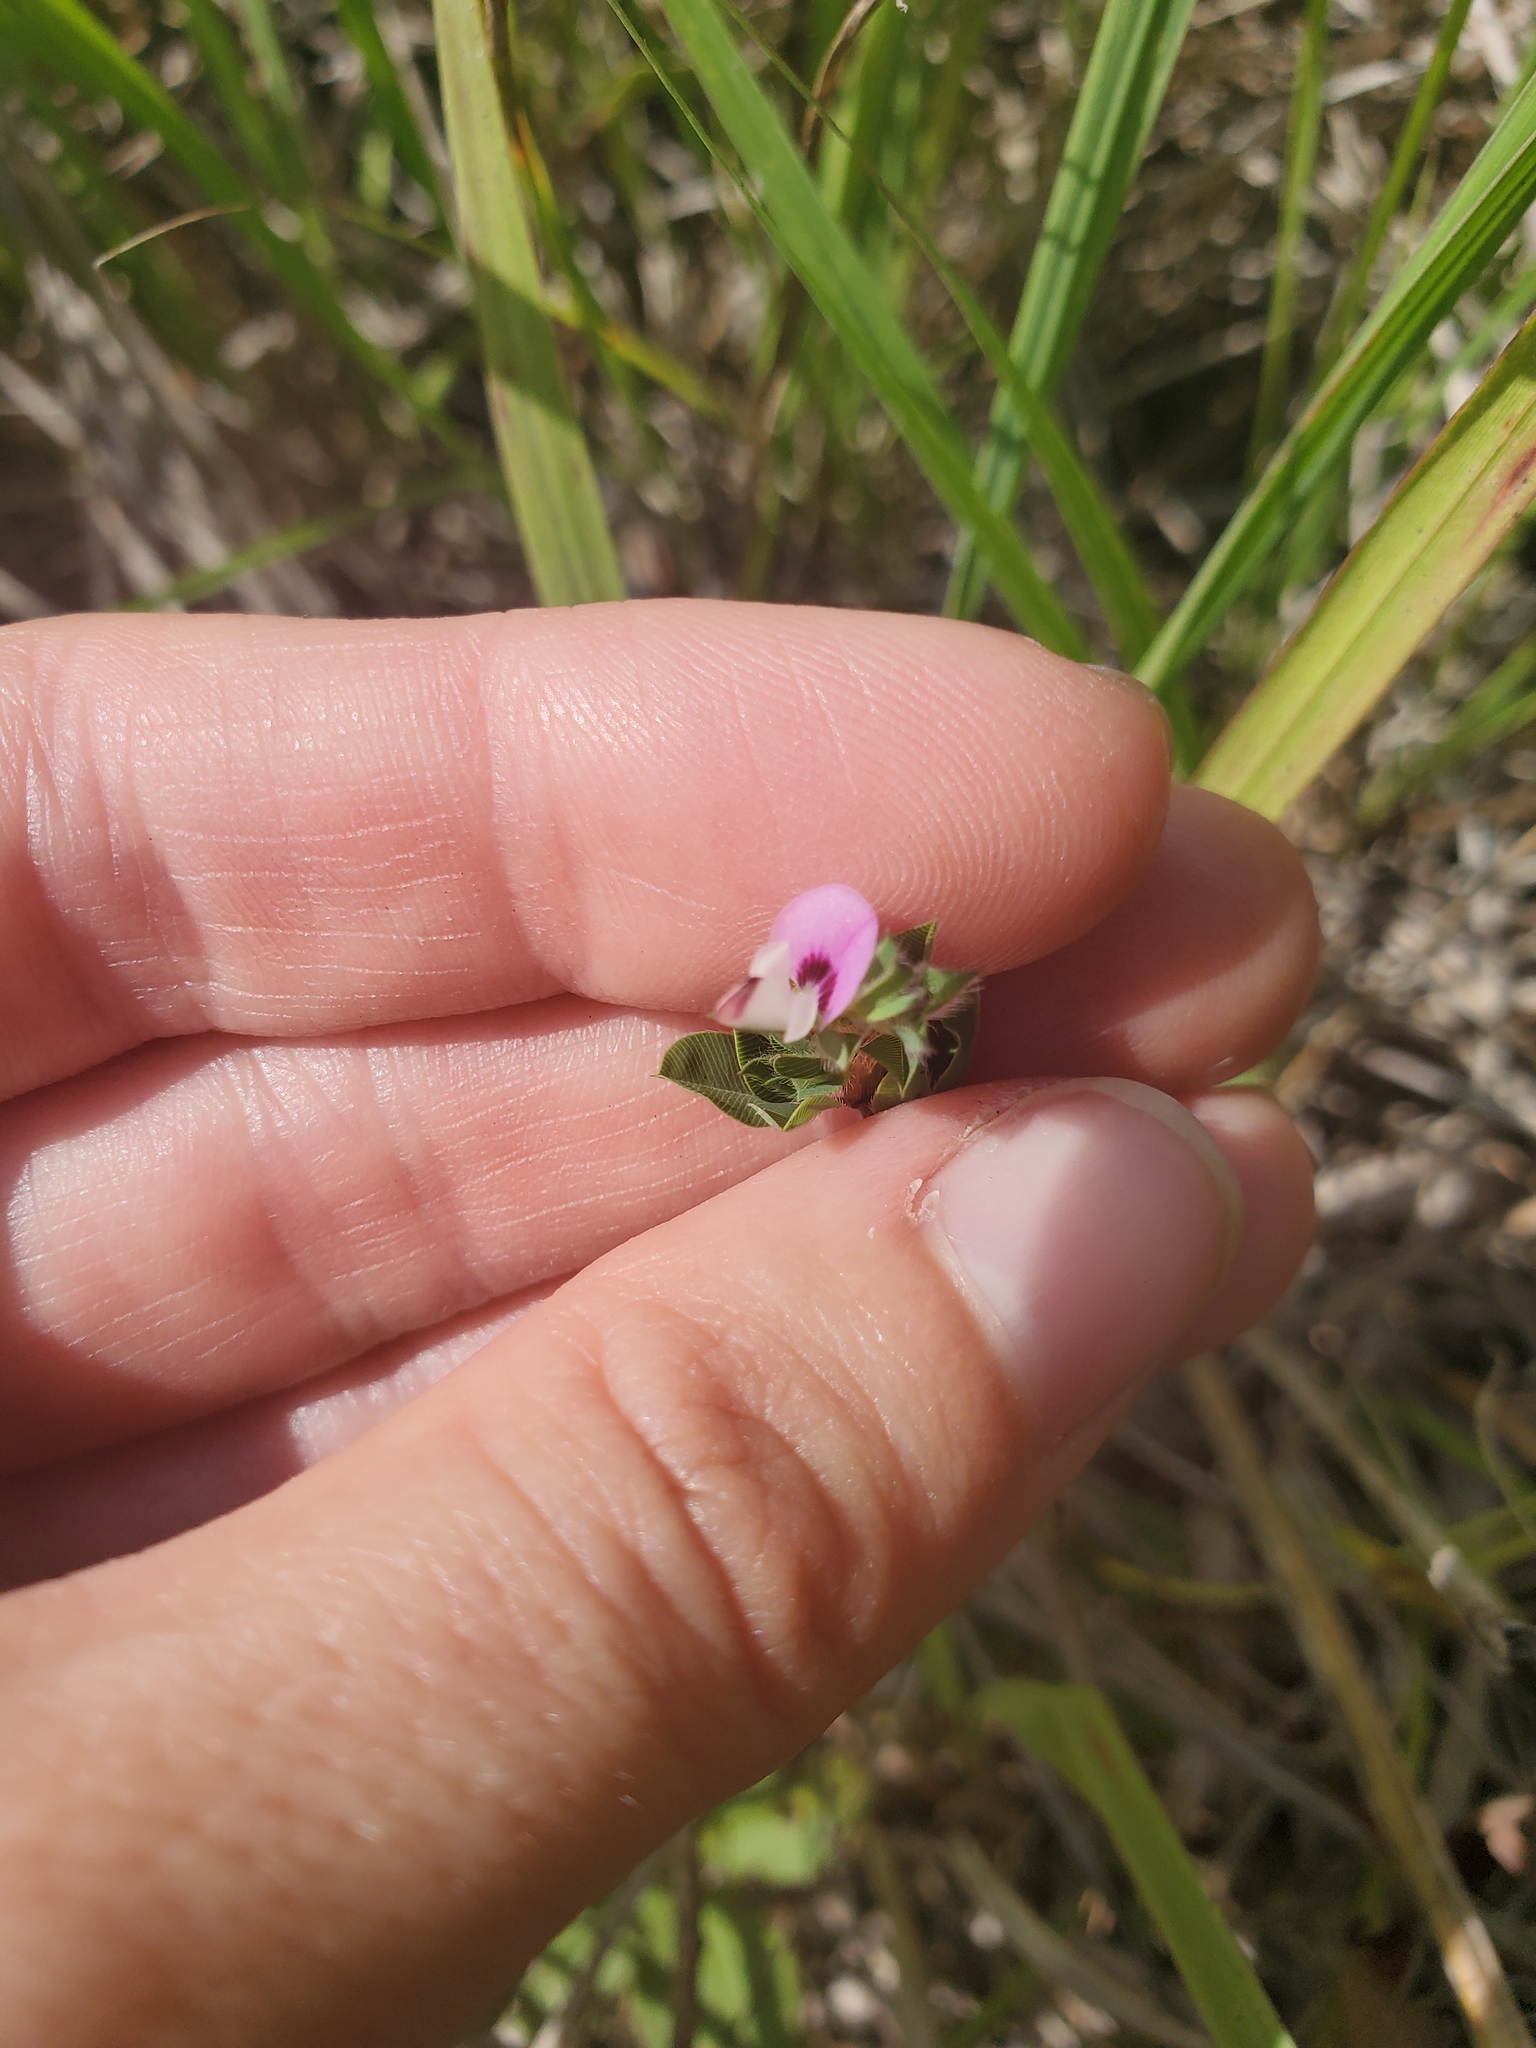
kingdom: Plantae
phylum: Tracheophyta
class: Magnoliopsida
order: Fabales
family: Fabaceae
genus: Kummerowia
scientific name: Kummerowia stipulacea
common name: Korean clover
